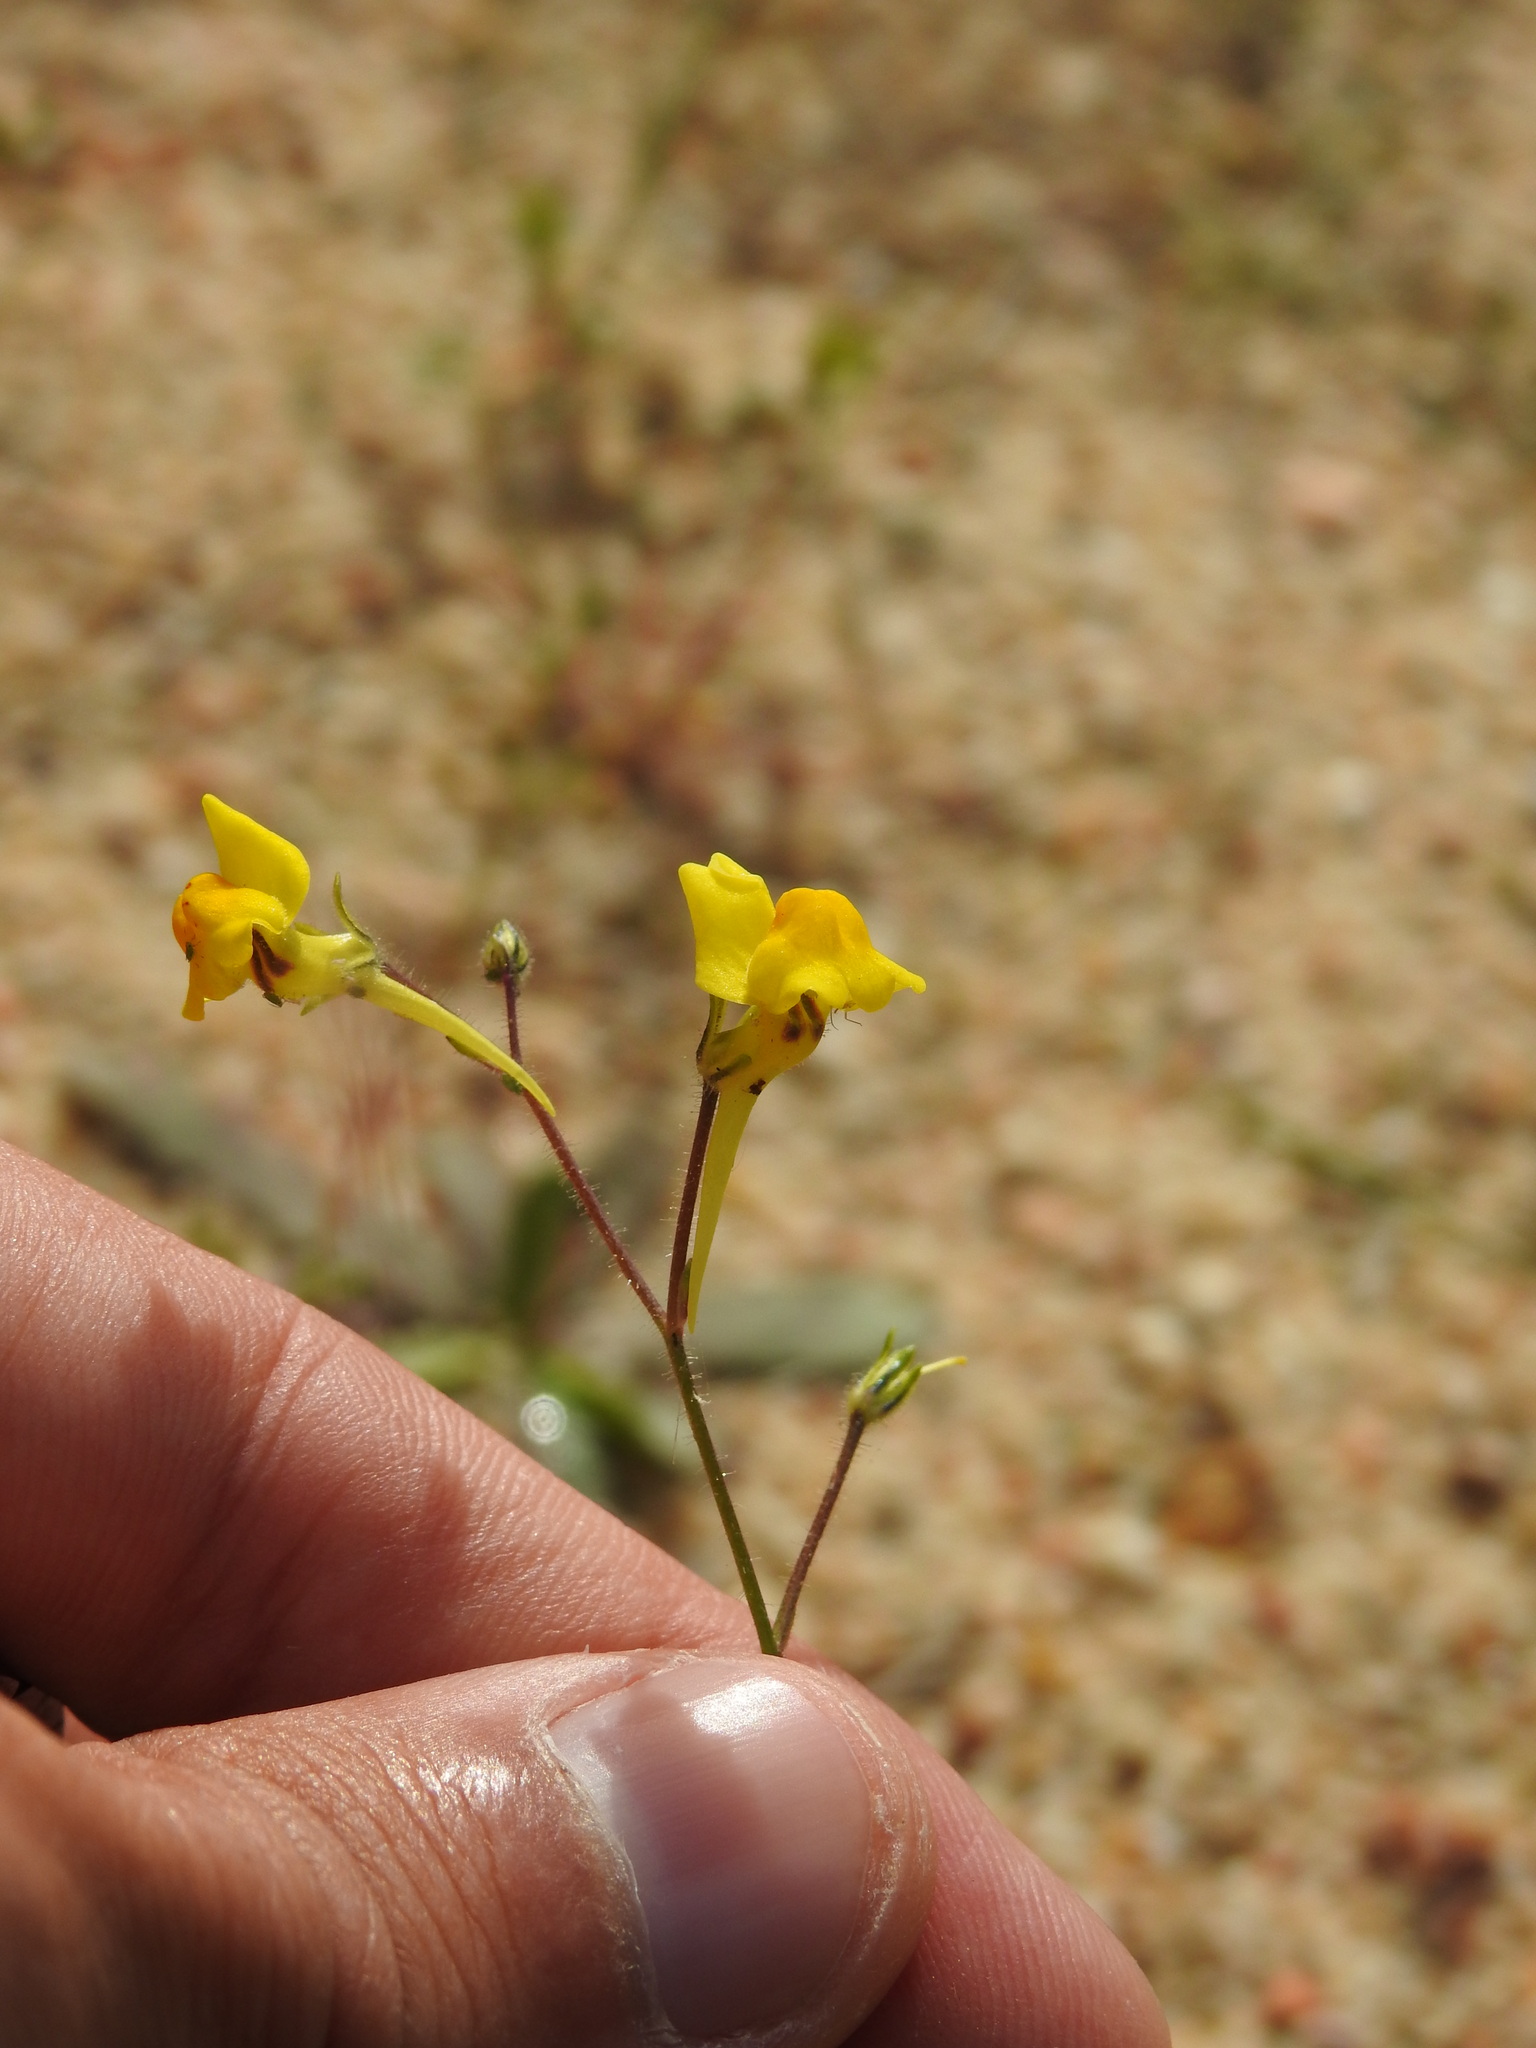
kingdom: Plantae
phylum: Tracheophyta
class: Magnoliopsida
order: Lamiales
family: Plantaginaceae
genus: Linaria
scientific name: Linaria spartea
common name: Ballast toadflax
